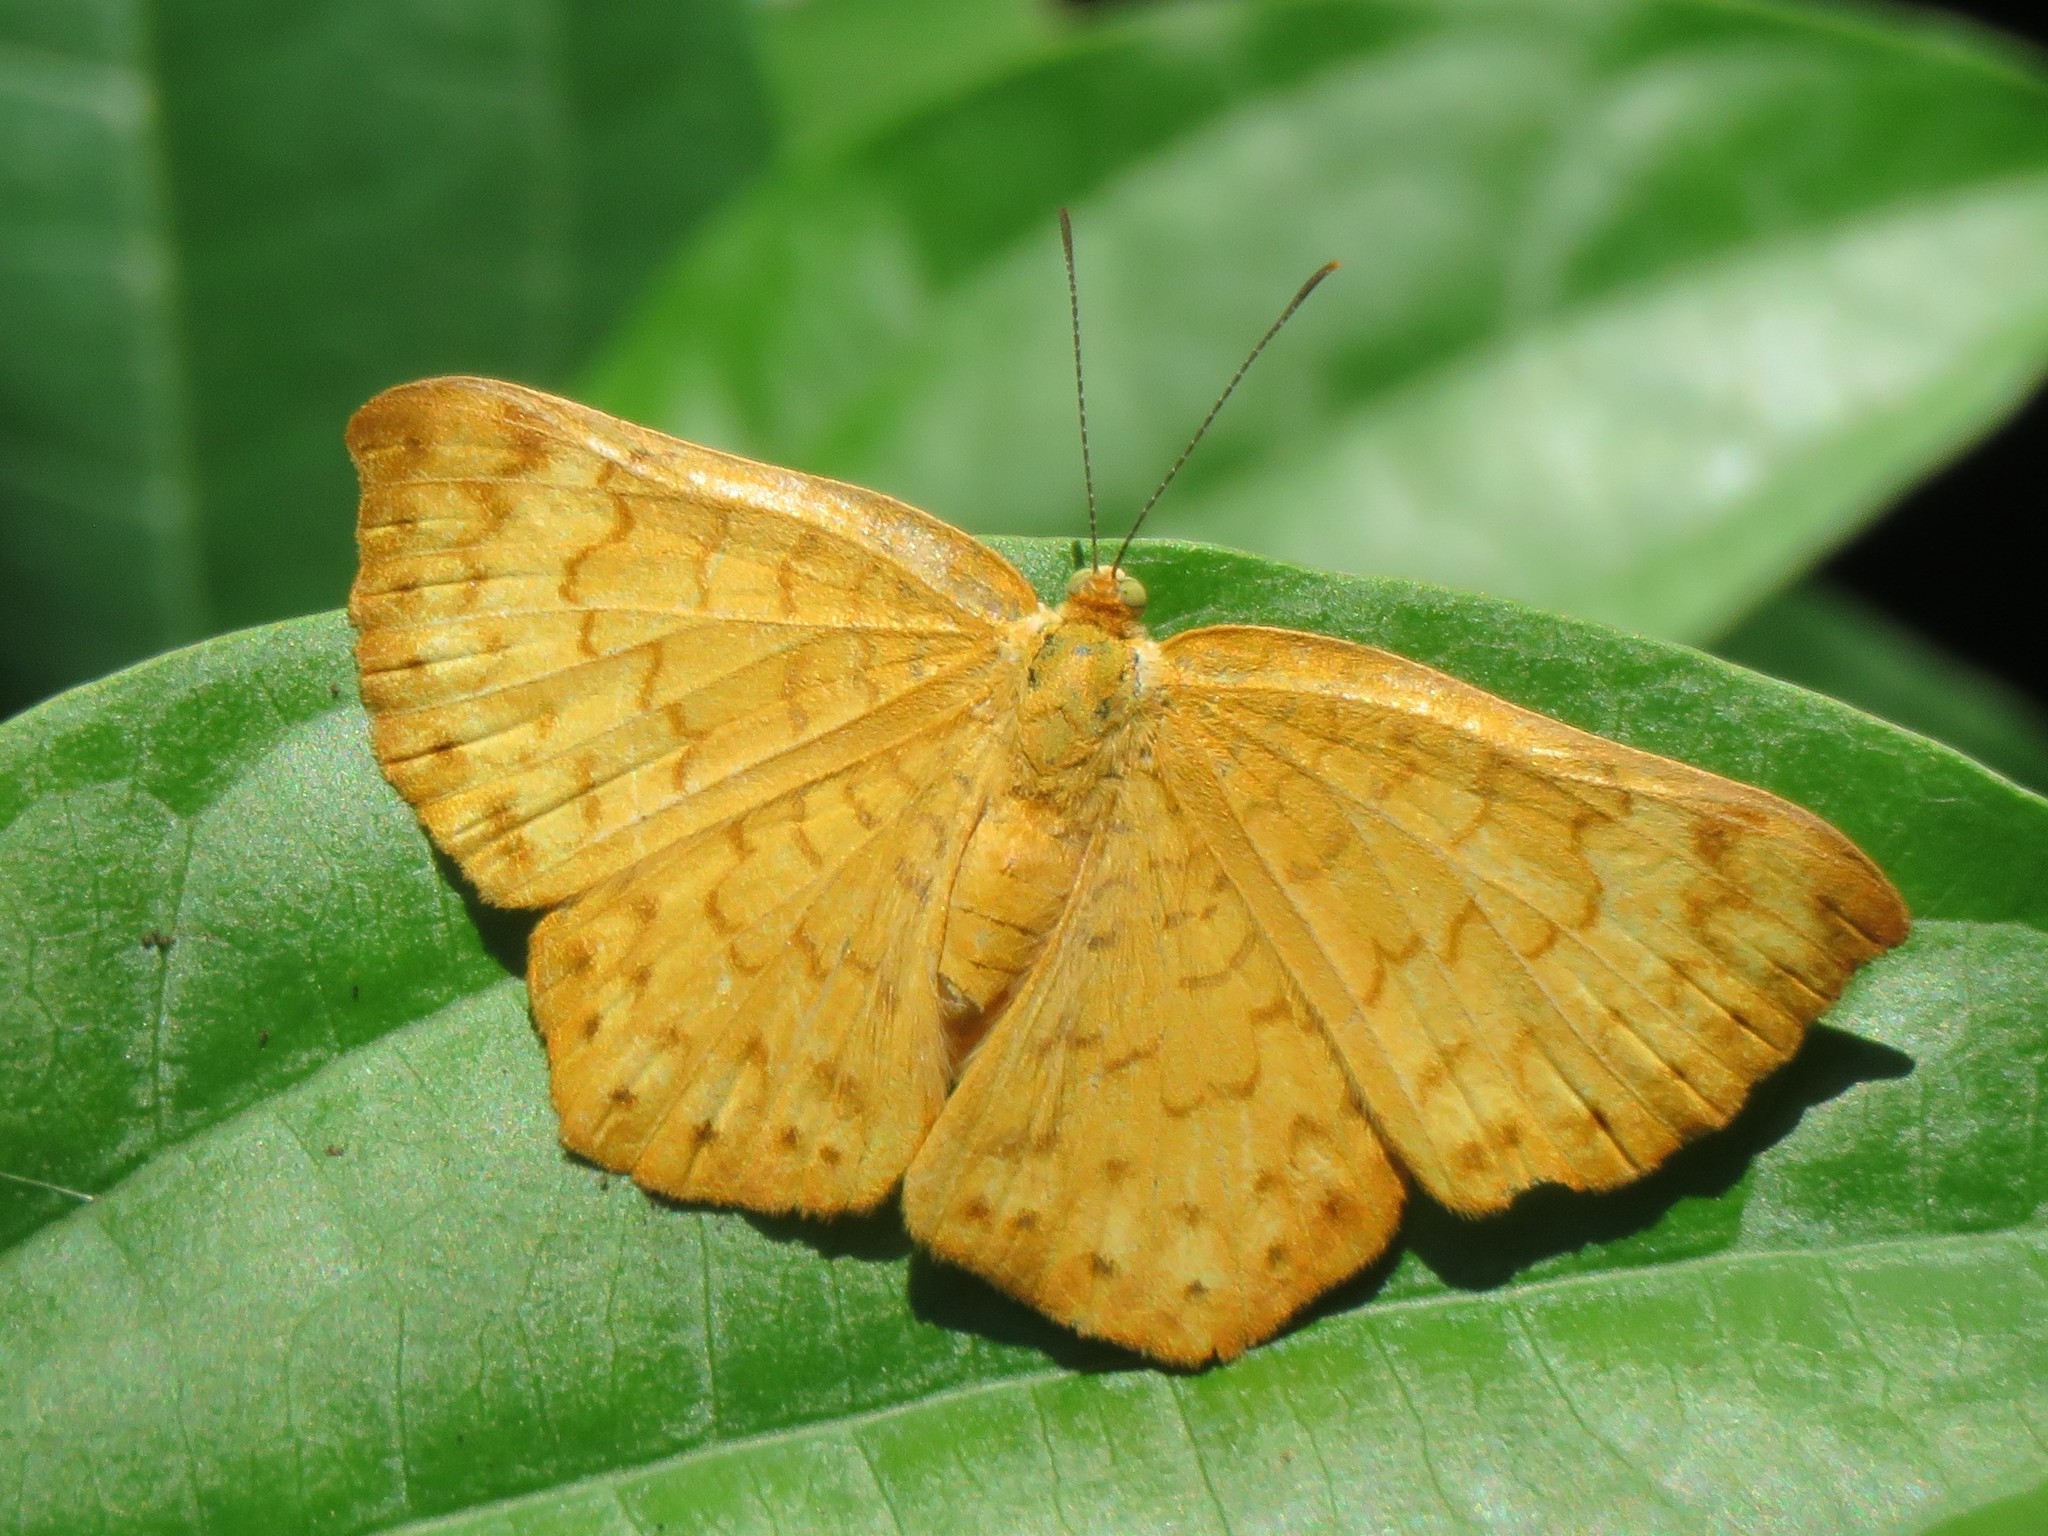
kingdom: Animalia
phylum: Arthropoda
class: Insecta
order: Lepidoptera
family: Lycaenidae
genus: Emesis
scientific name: Emesis vulpina
